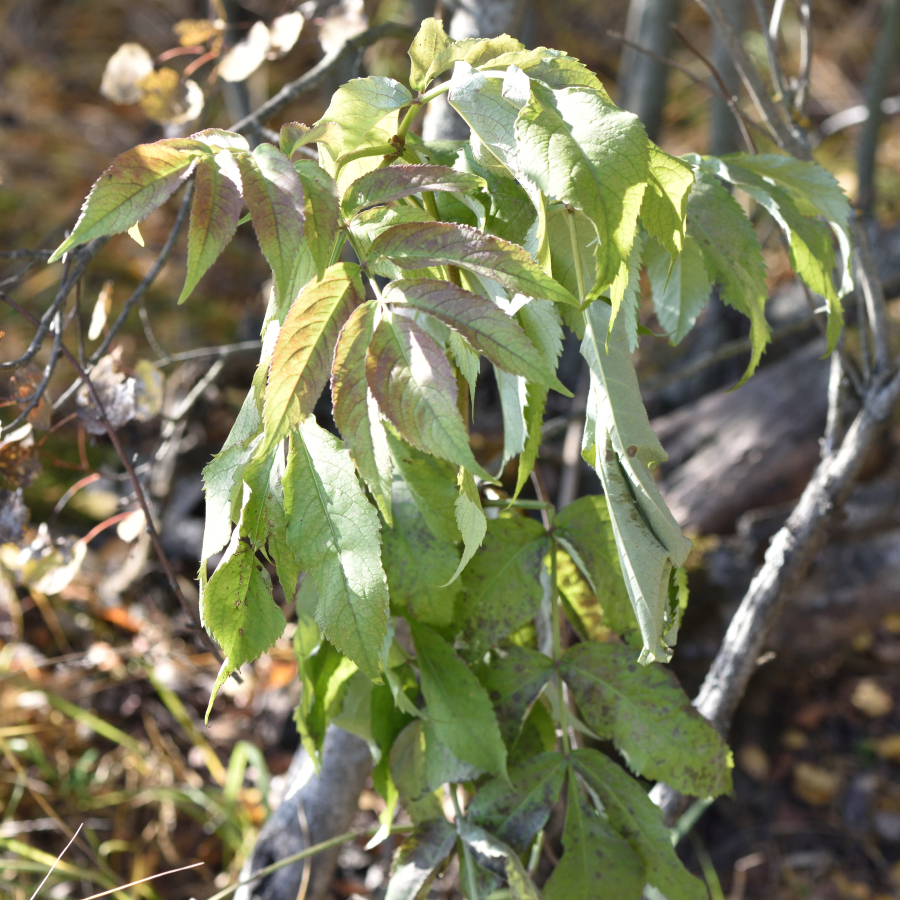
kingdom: Plantae
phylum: Tracheophyta
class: Magnoliopsida
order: Dipsacales
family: Viburnaceae
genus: Sambucus
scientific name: Sambucus racemosa
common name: Red-berried elder
